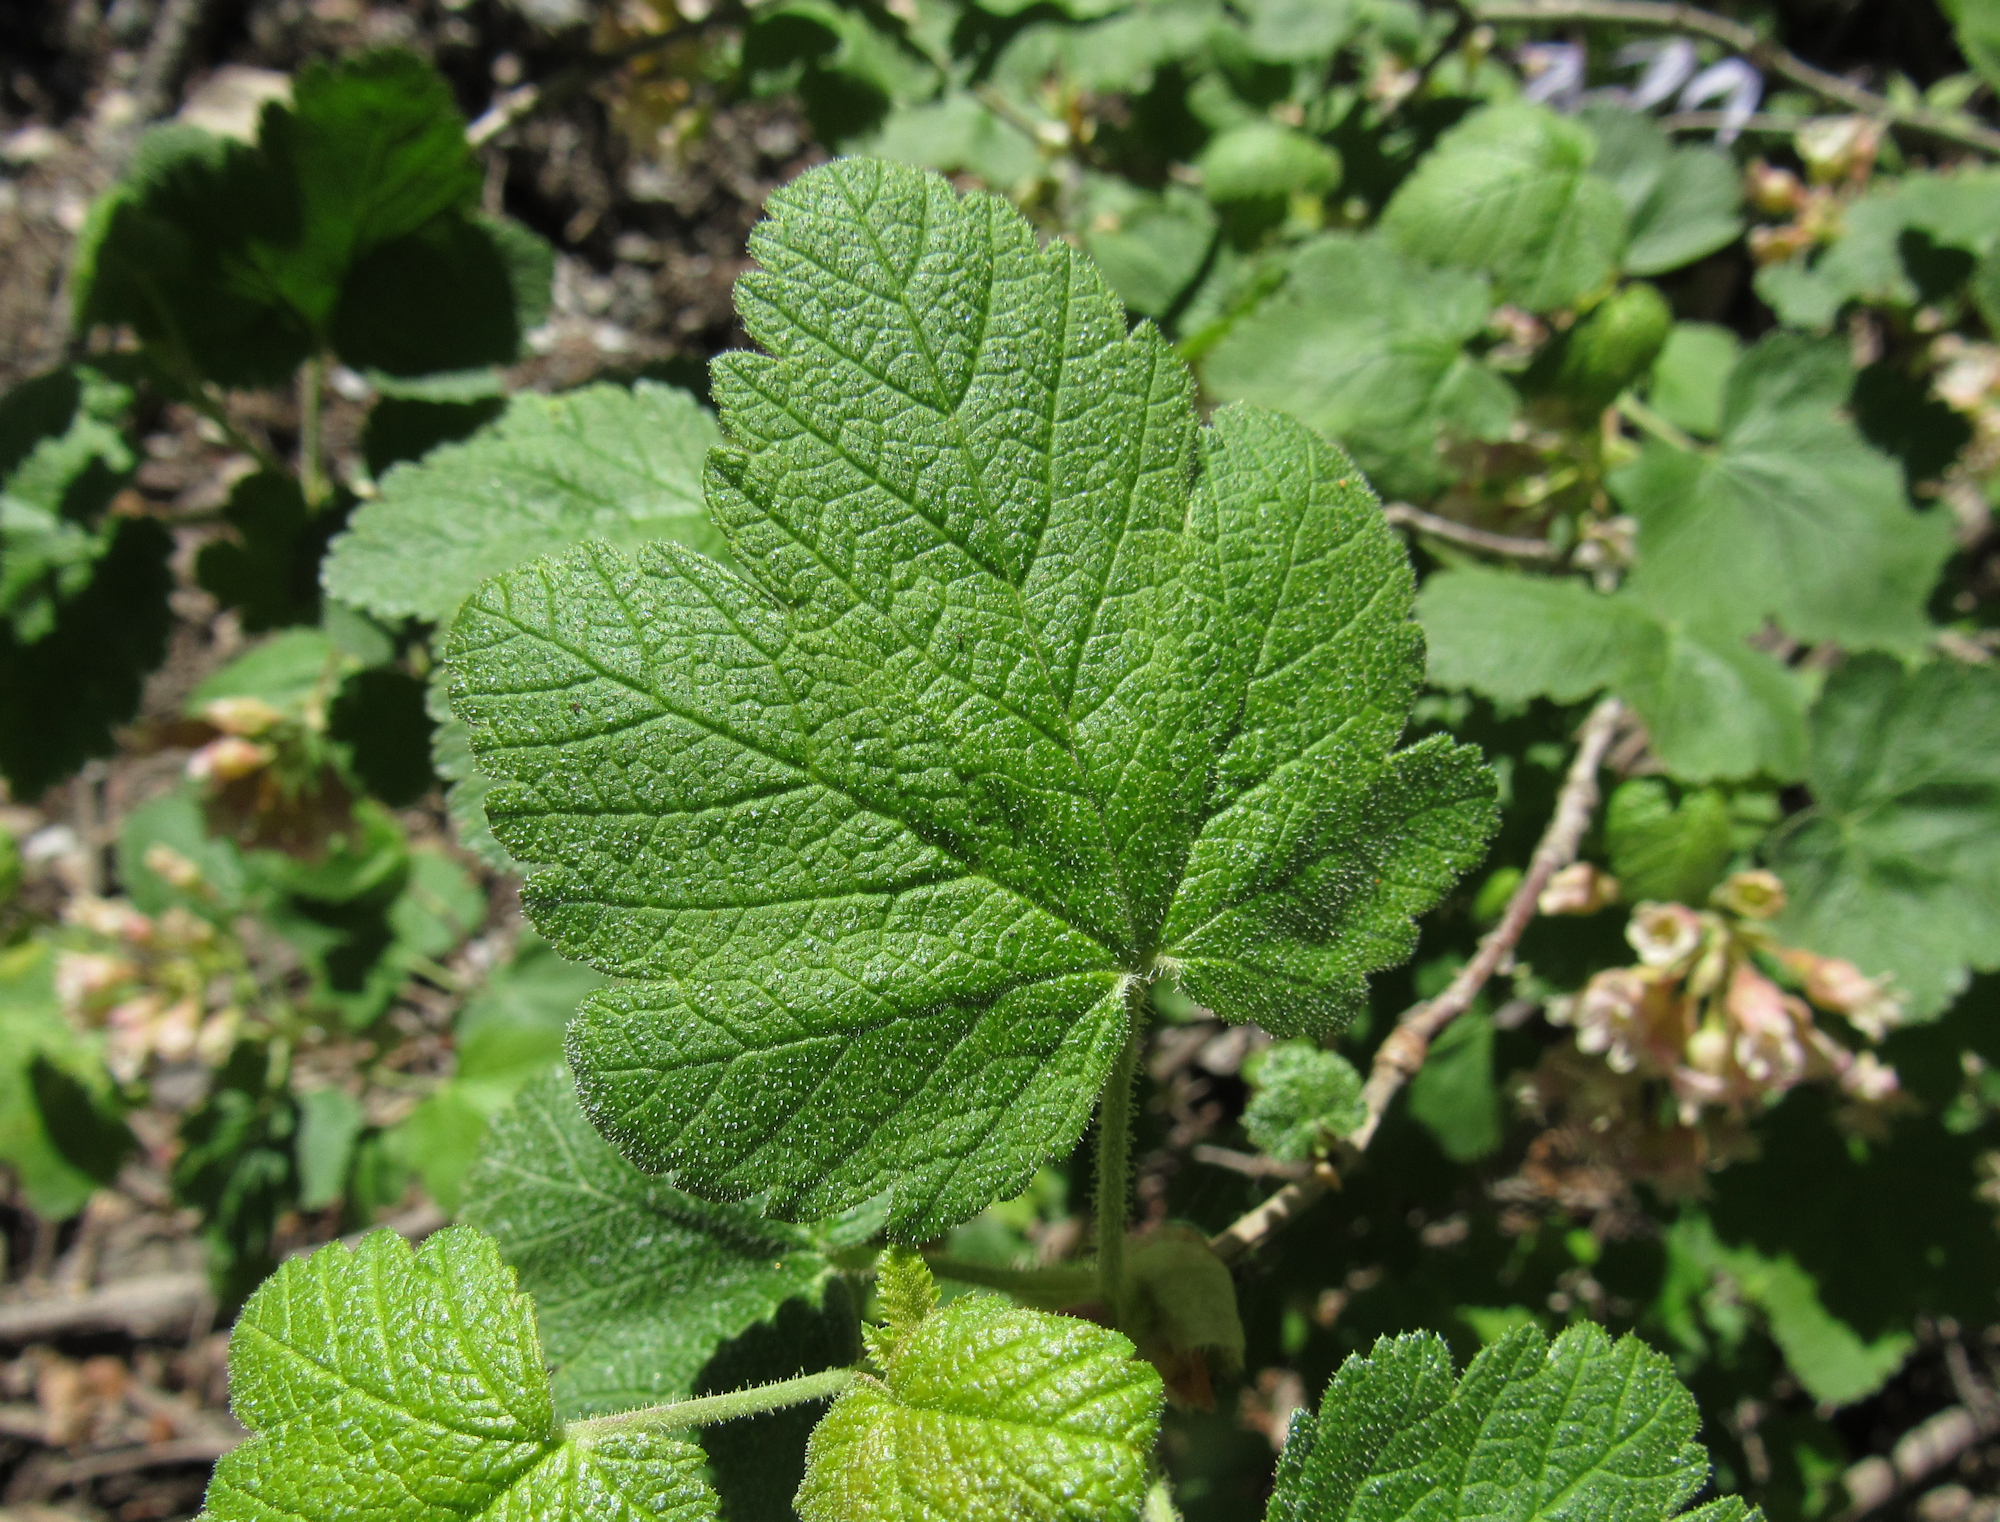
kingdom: Plantae
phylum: Tracheophyta
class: Magnoliopsida
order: Saxifragales
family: Grossulariaceae
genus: Ribes
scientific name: Ribes viscosissimum
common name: Sticky currant
